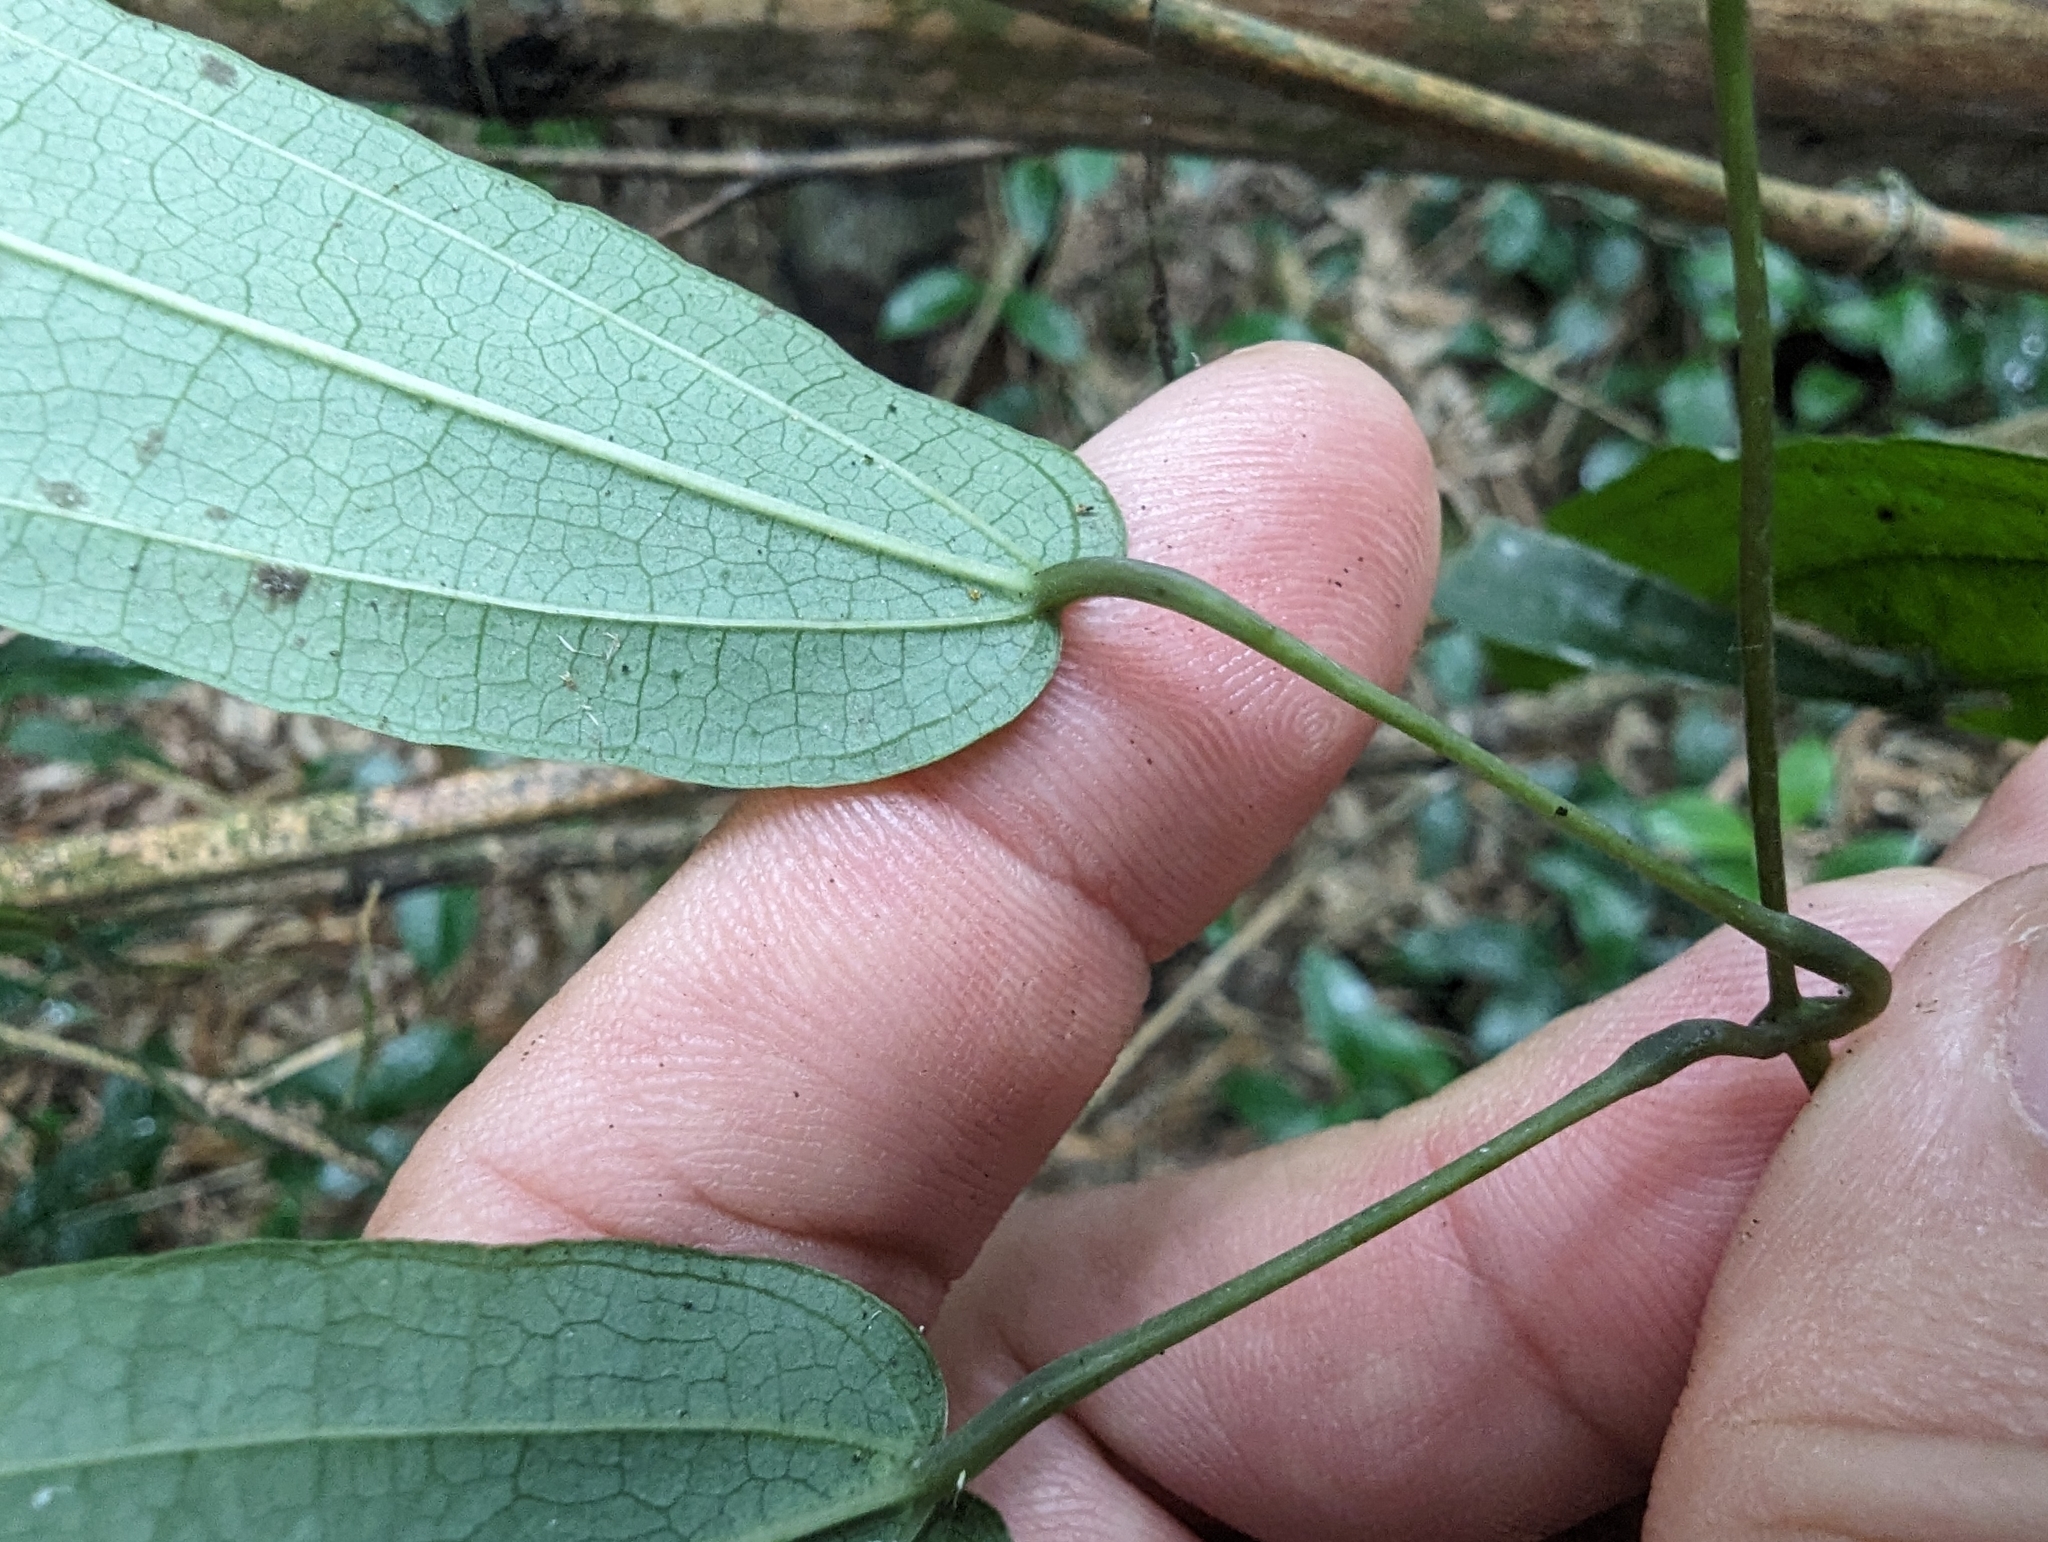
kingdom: Plantae
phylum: Tracheophyta
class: Liliopsida
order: Dioscoreales
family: Dioscoreaceae
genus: Dioscorea
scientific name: Dioscorea cirrhosa
